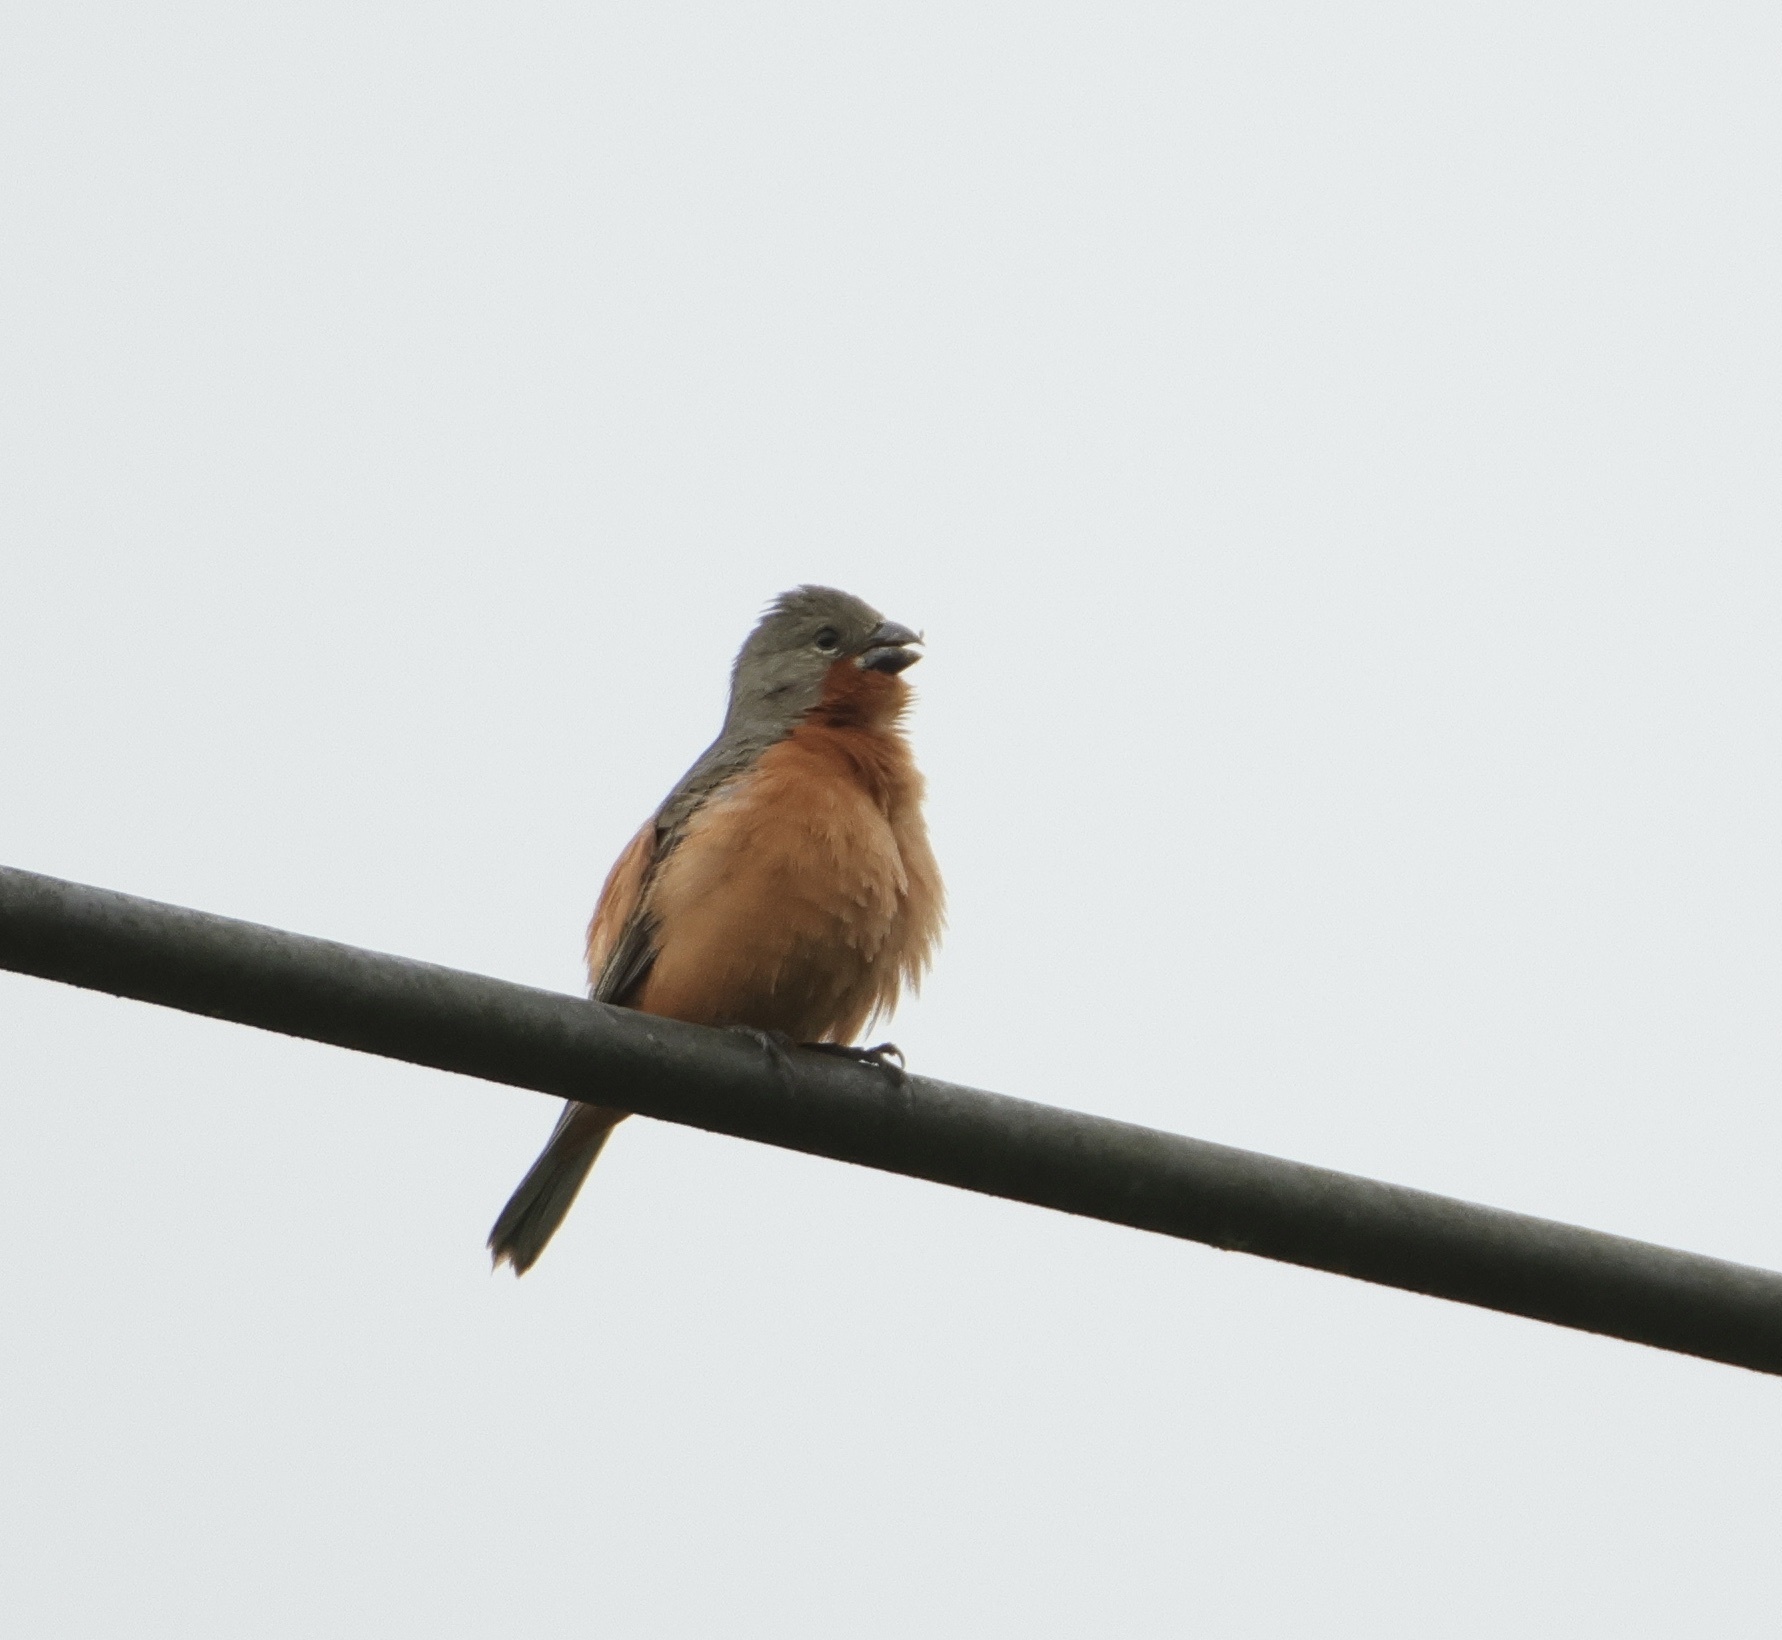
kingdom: Animalia
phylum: Chordata
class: Aves
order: Passeriformes
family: Thraupidae
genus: Sporophila
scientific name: Sporophila minuta
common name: Ruddy-breasted seedeater
